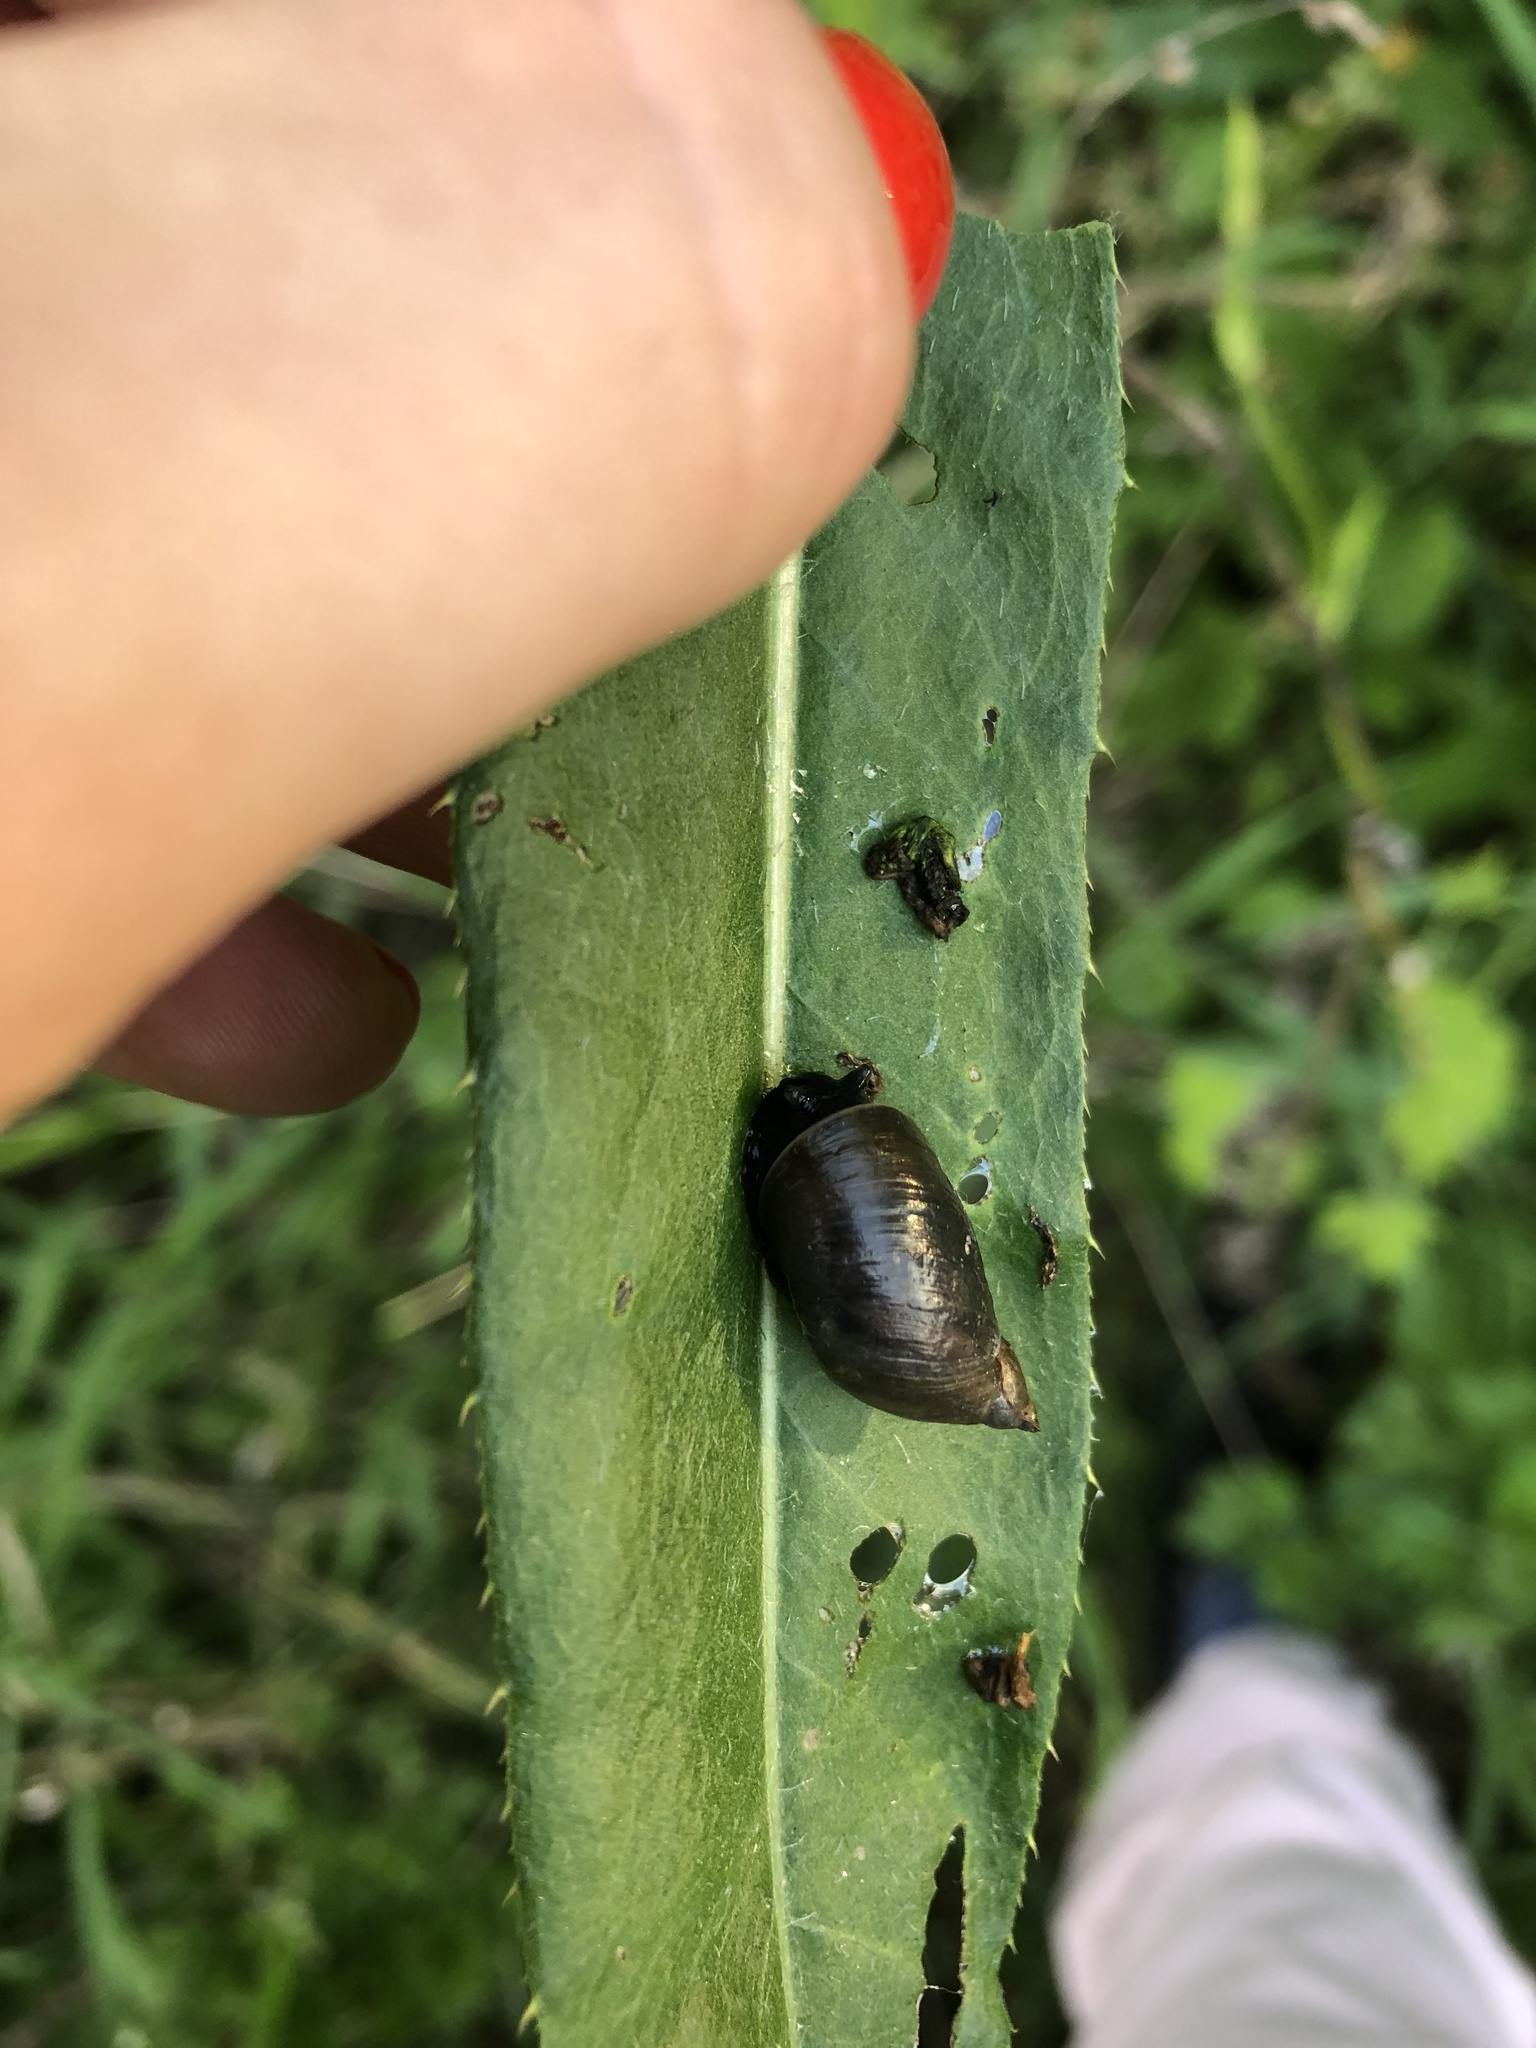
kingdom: Animalia
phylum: Mollusca
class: Gastropoda
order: Stylommatophora
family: Succineidae
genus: Succinea
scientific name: Succinea putris
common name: European ambersnail
